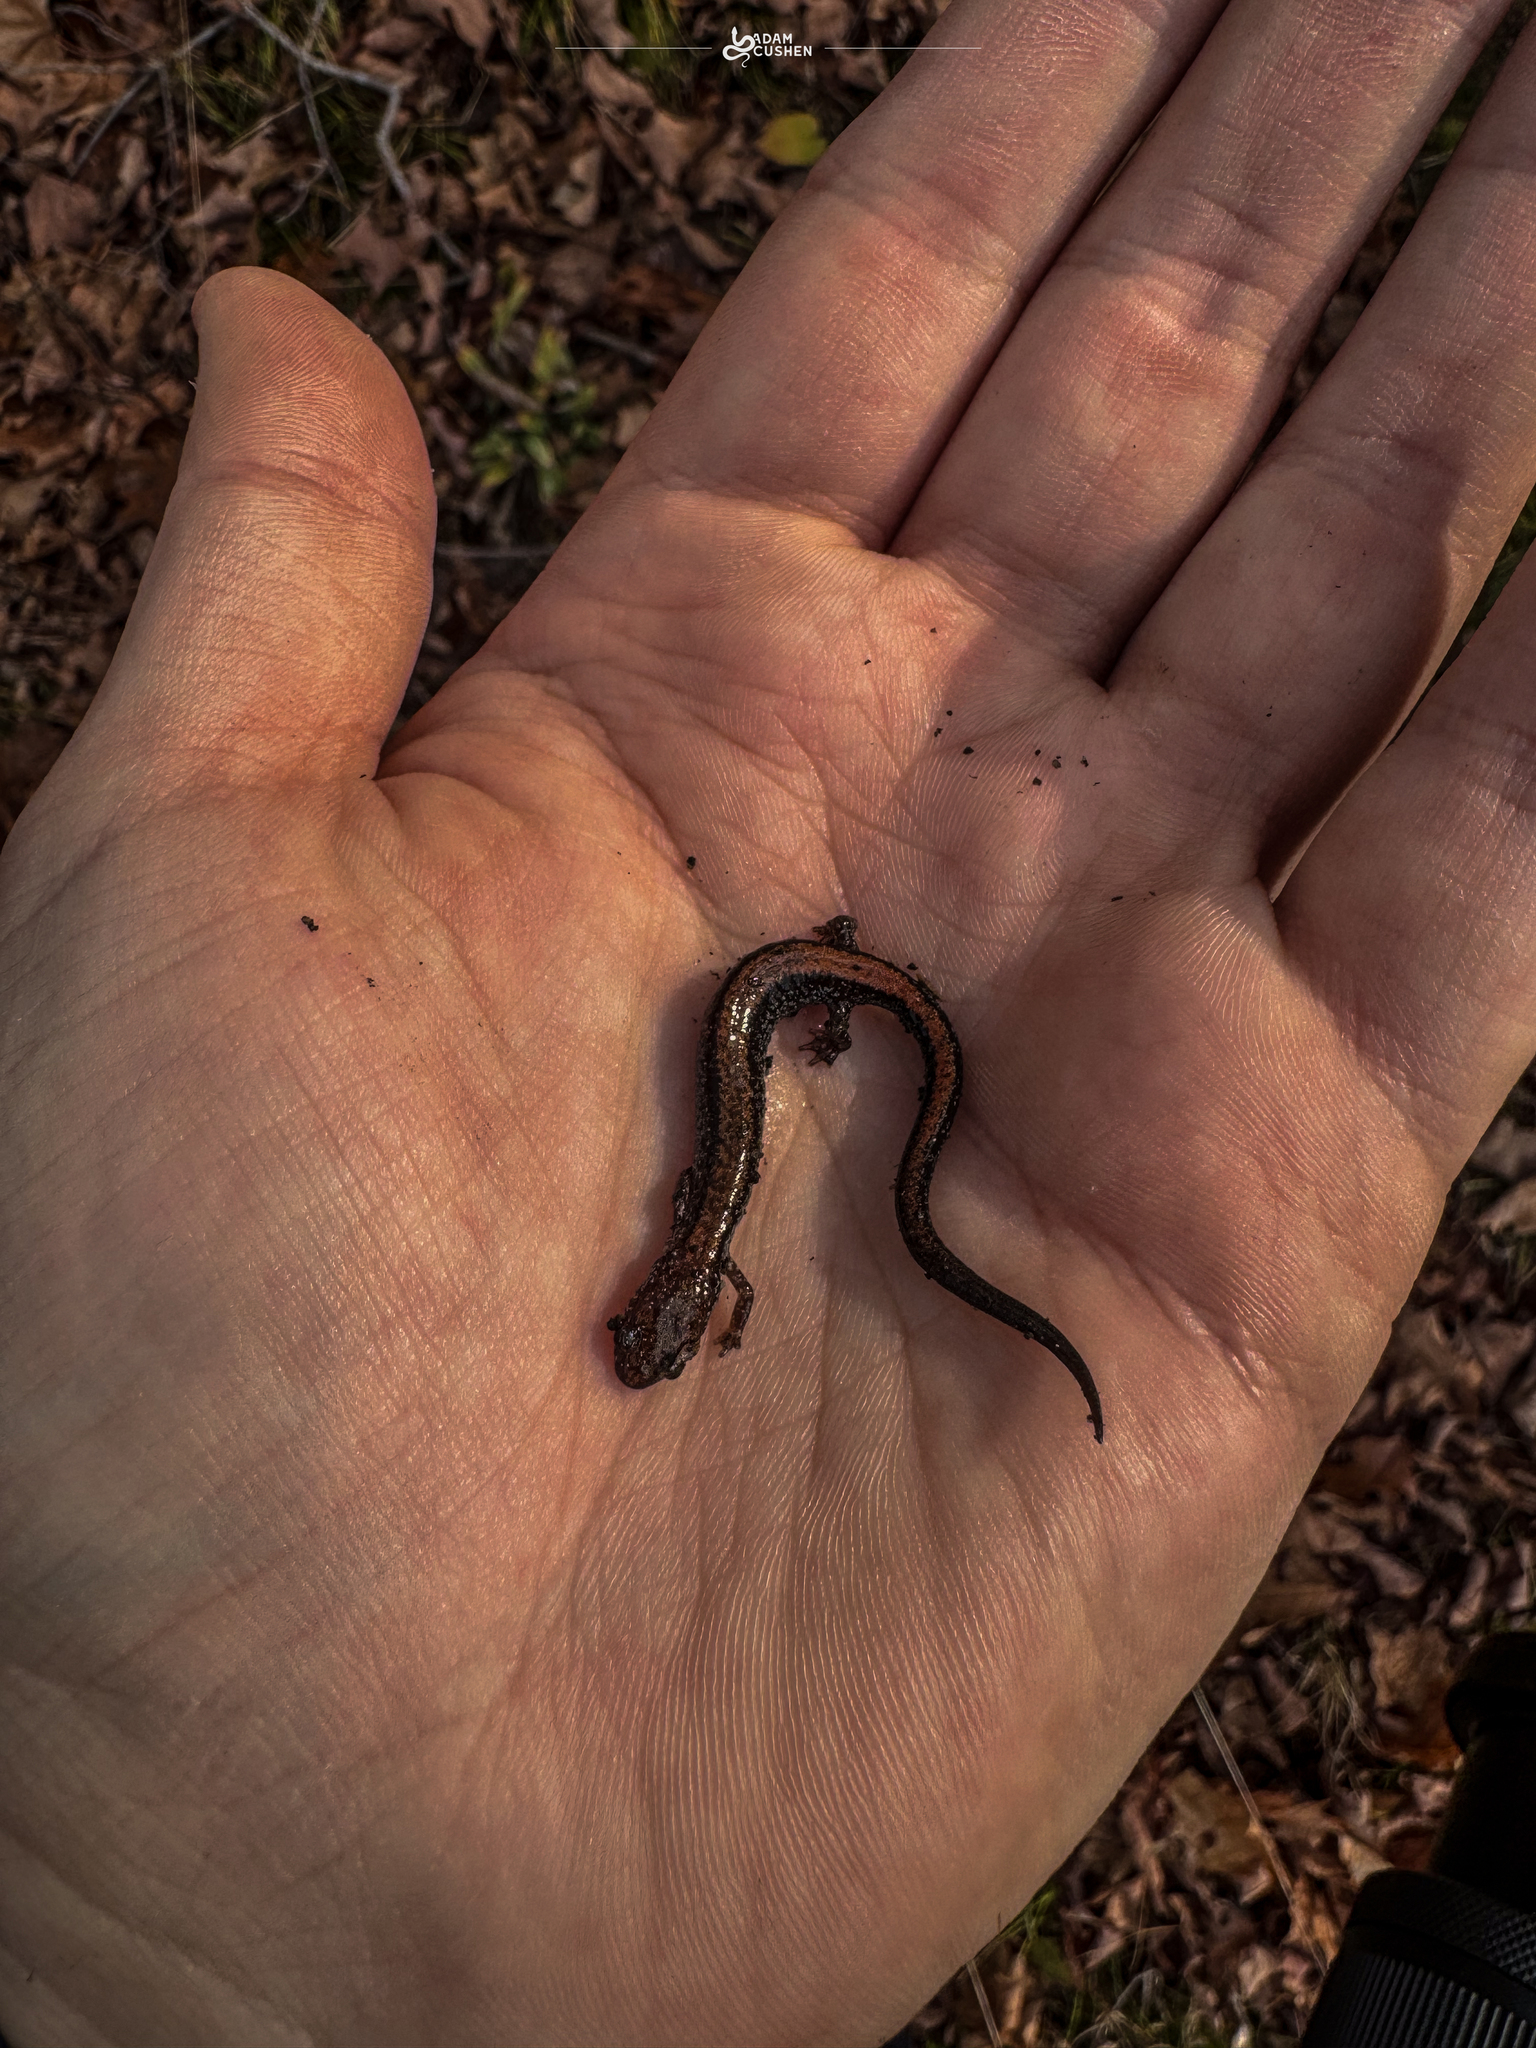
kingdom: Animalia
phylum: Chordata
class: Amphibia
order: Caudata
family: Plethodontidae
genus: Plethodon
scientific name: Plethodon cinereus
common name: Redback salamander
